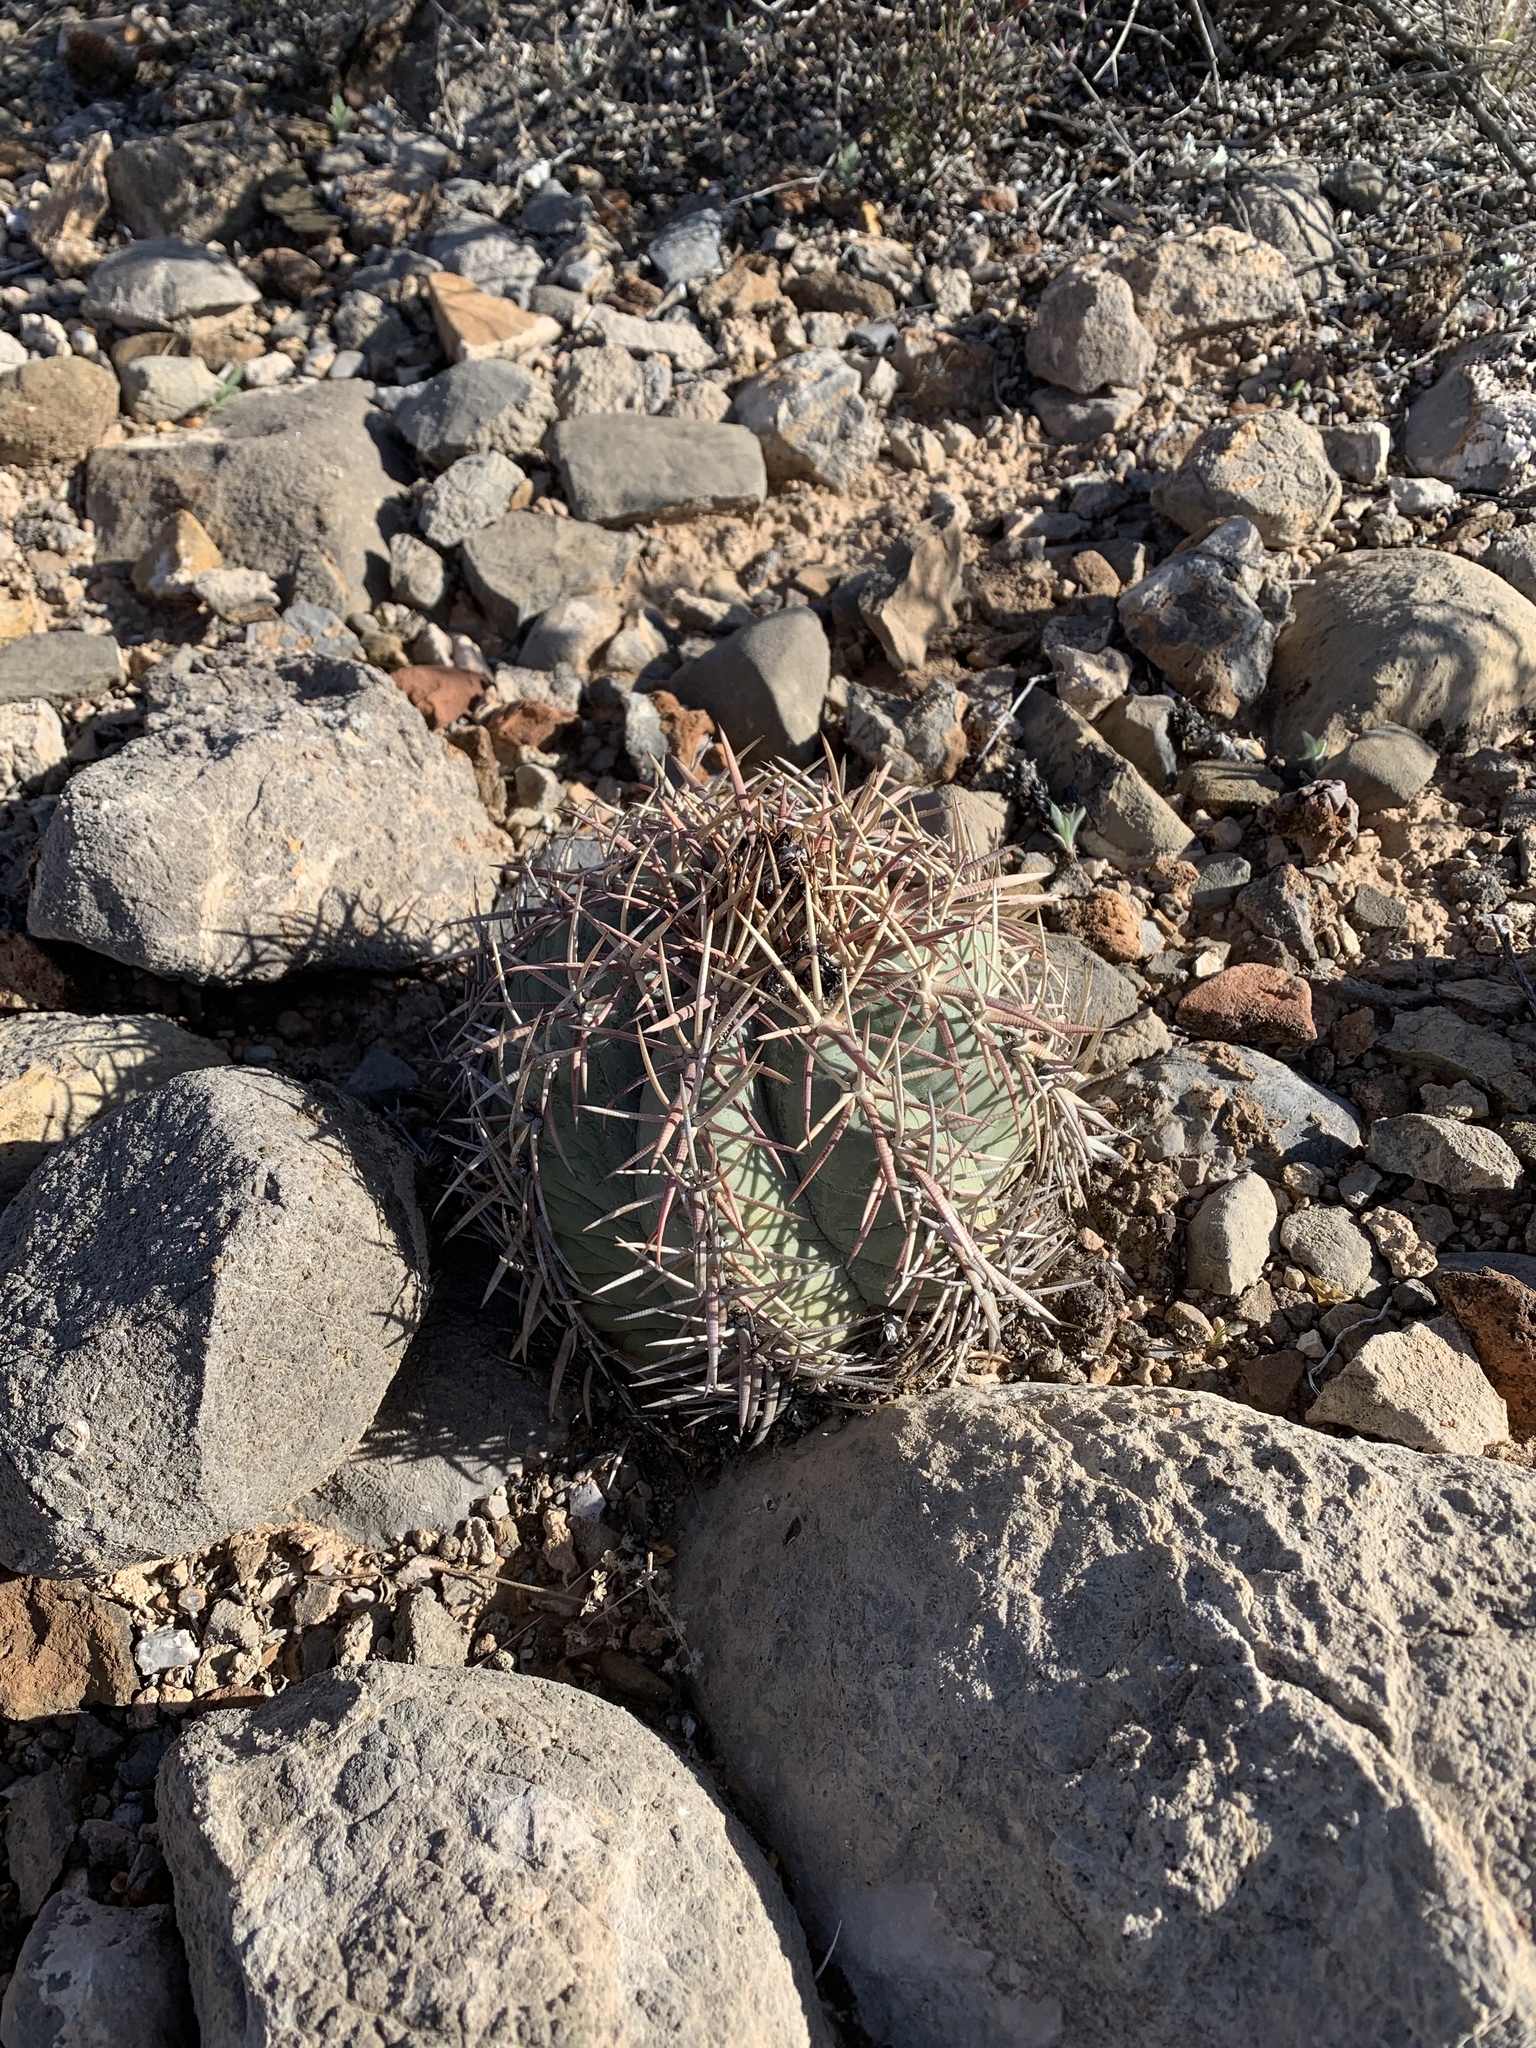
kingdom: Plantae
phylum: Tracheophyta
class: Magnoliopsida
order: Caryophyllales
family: Cactaceae
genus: Echinocactus
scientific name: Echinocactus horizonthalonius
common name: Devilshead
